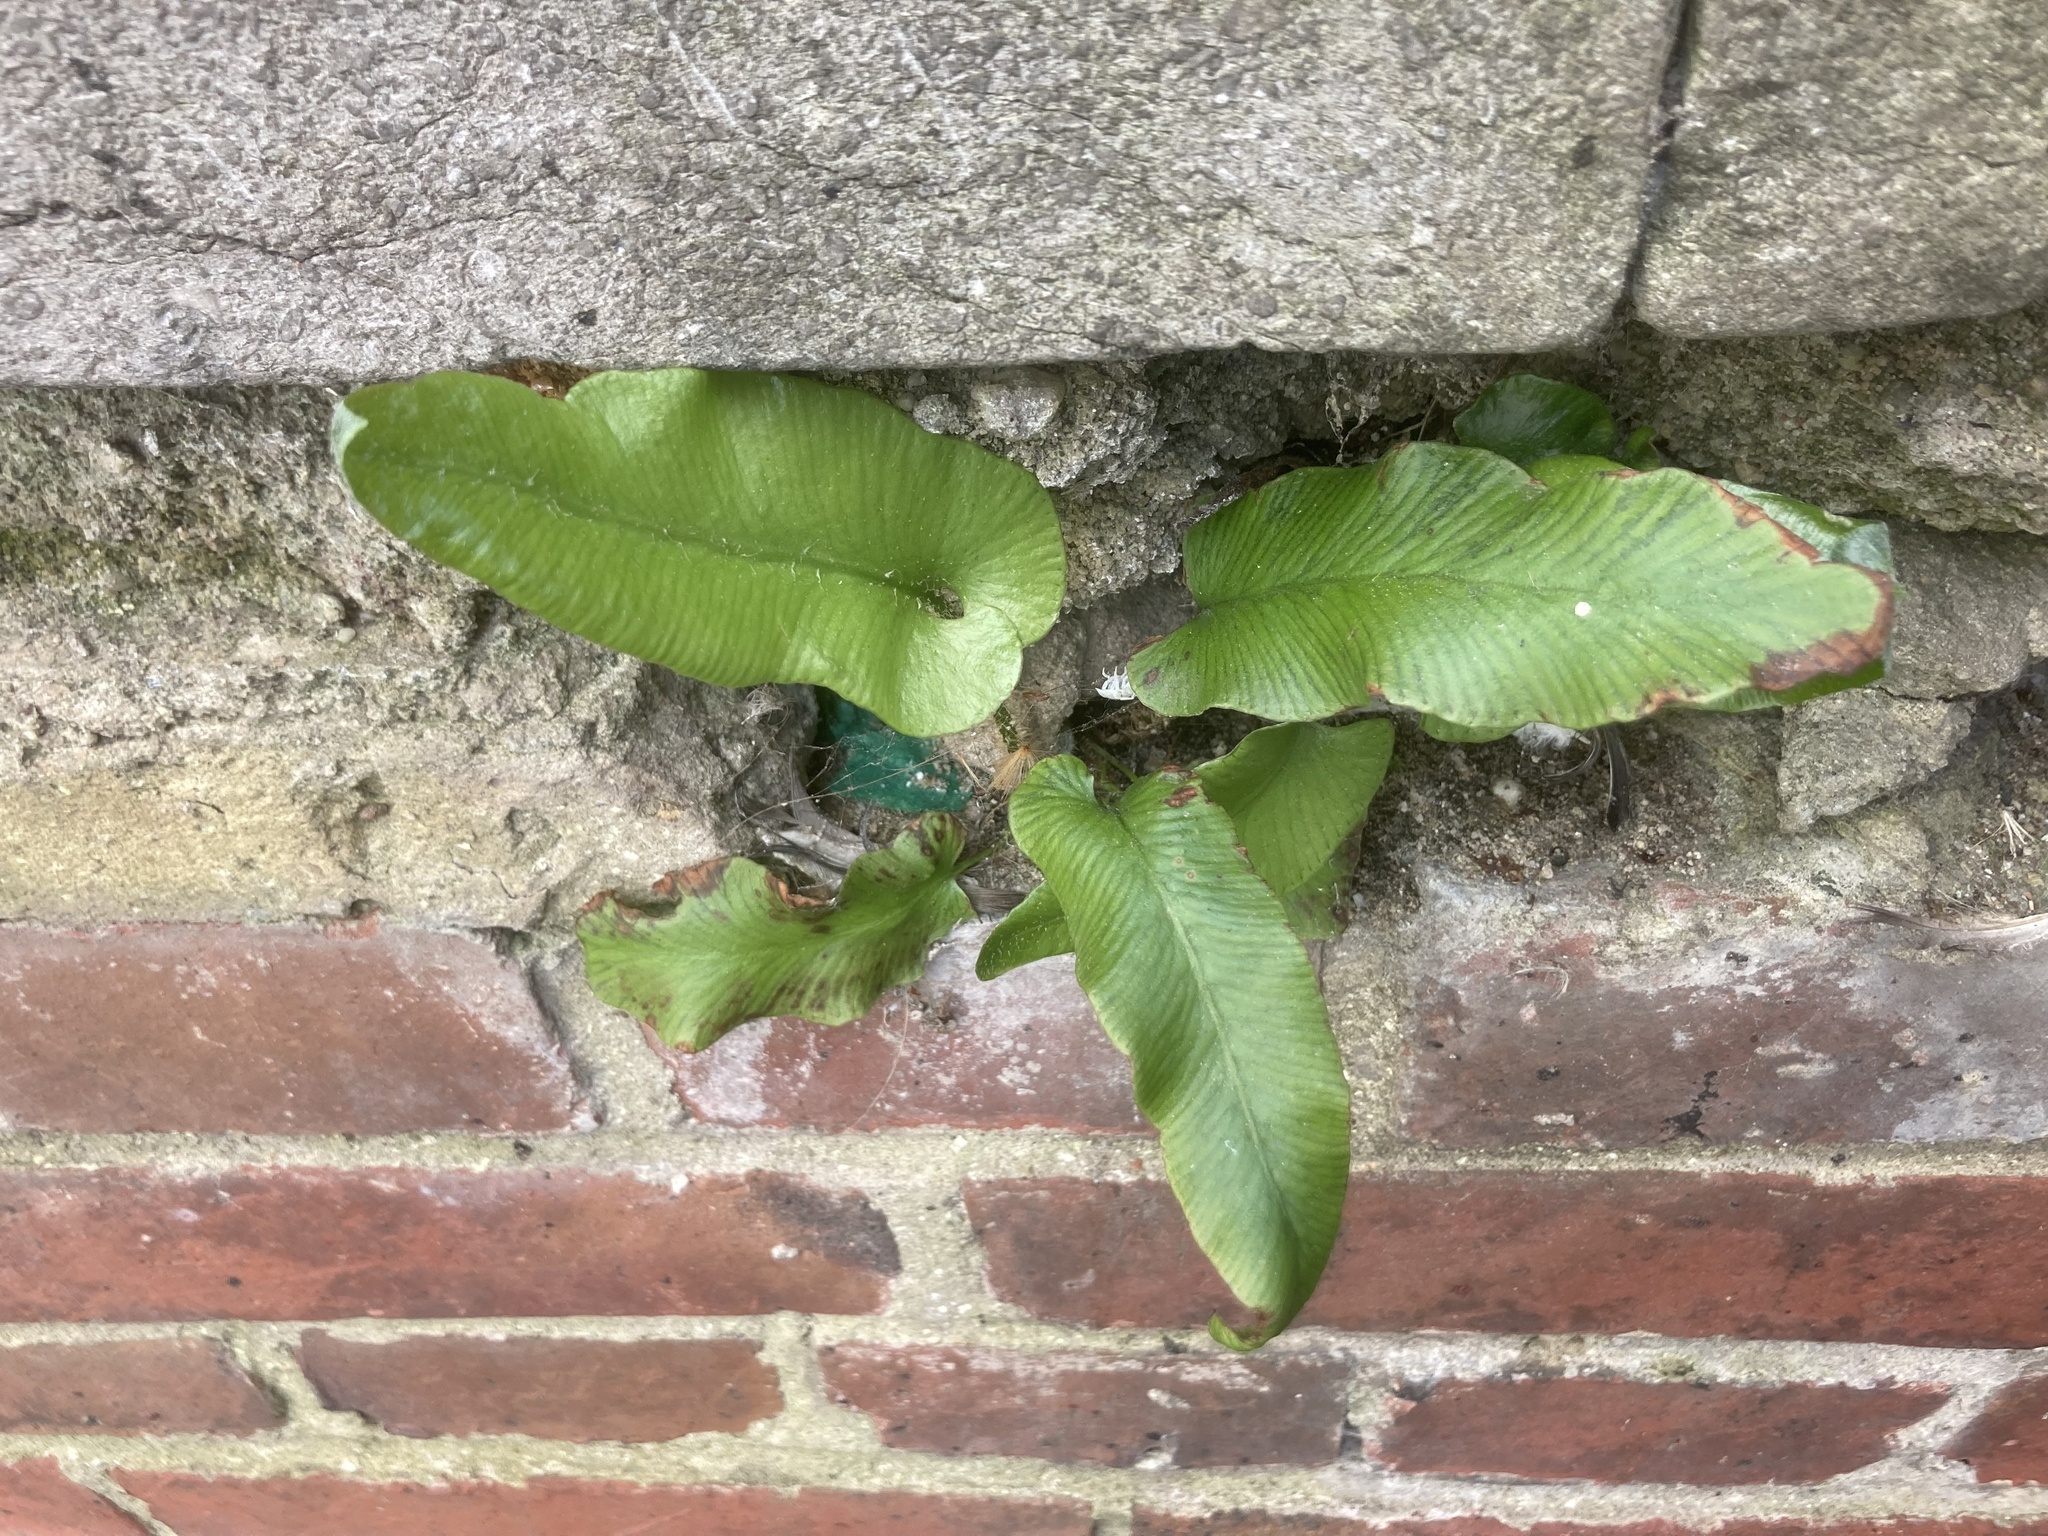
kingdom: Plantae
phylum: Tracheophyta
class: Polypodiopsida
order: Polypodiales
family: Aspleniaceae
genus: Asplenium
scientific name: Asplenium scolopendrium
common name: Hart's-tongue fern
